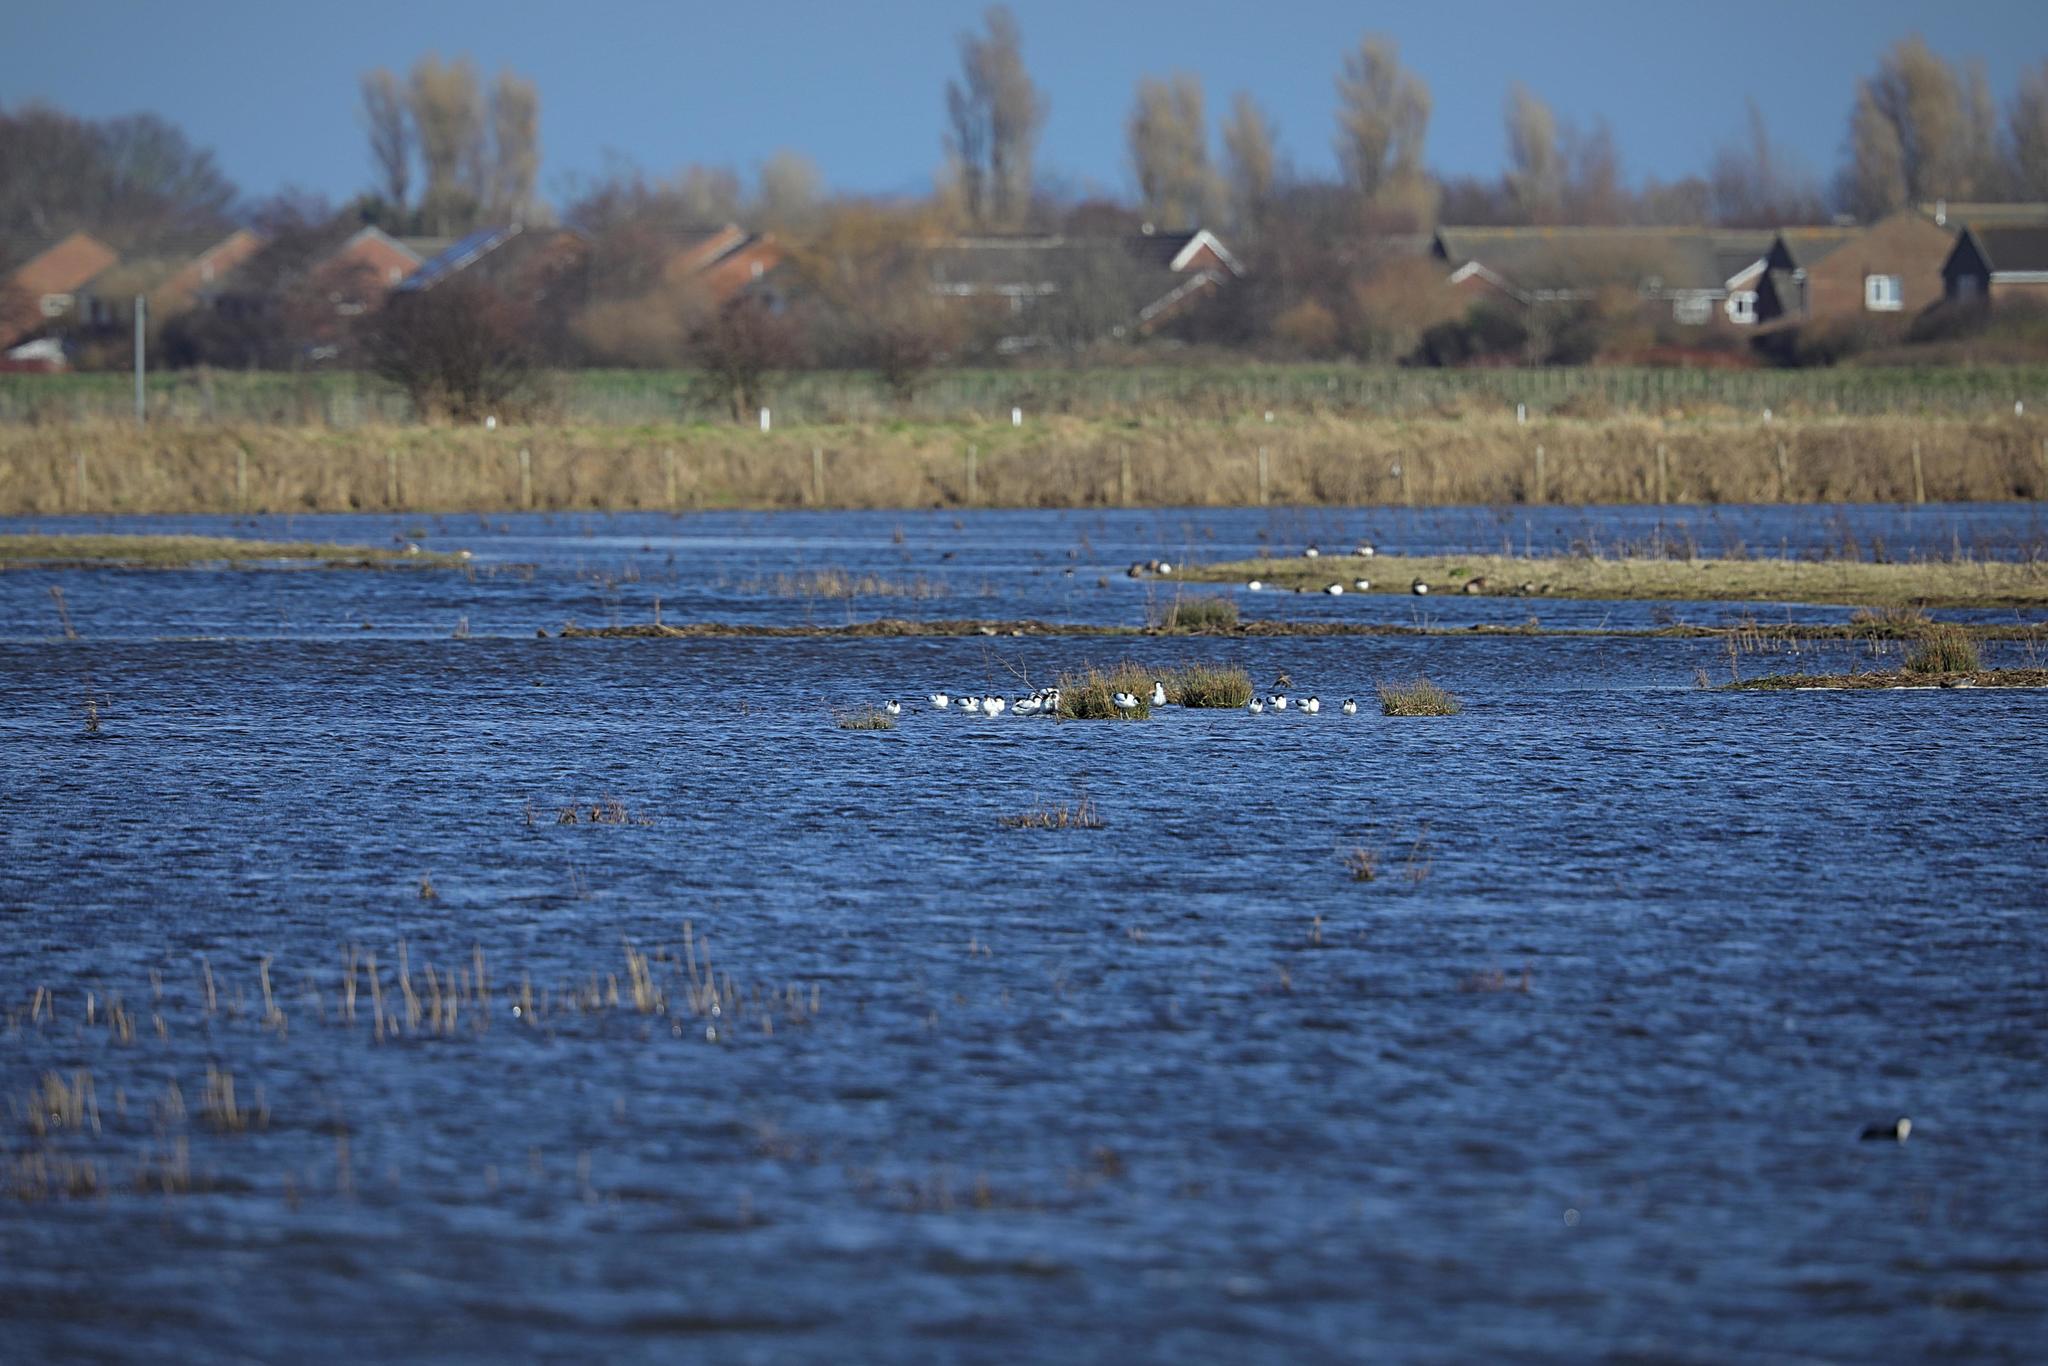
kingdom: Animalia
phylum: Chordata
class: Aves
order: Charadriiformes
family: Recurvirostridae
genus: Recurvirostra
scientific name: Recurvirostra avosetta
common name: Pied avocet
